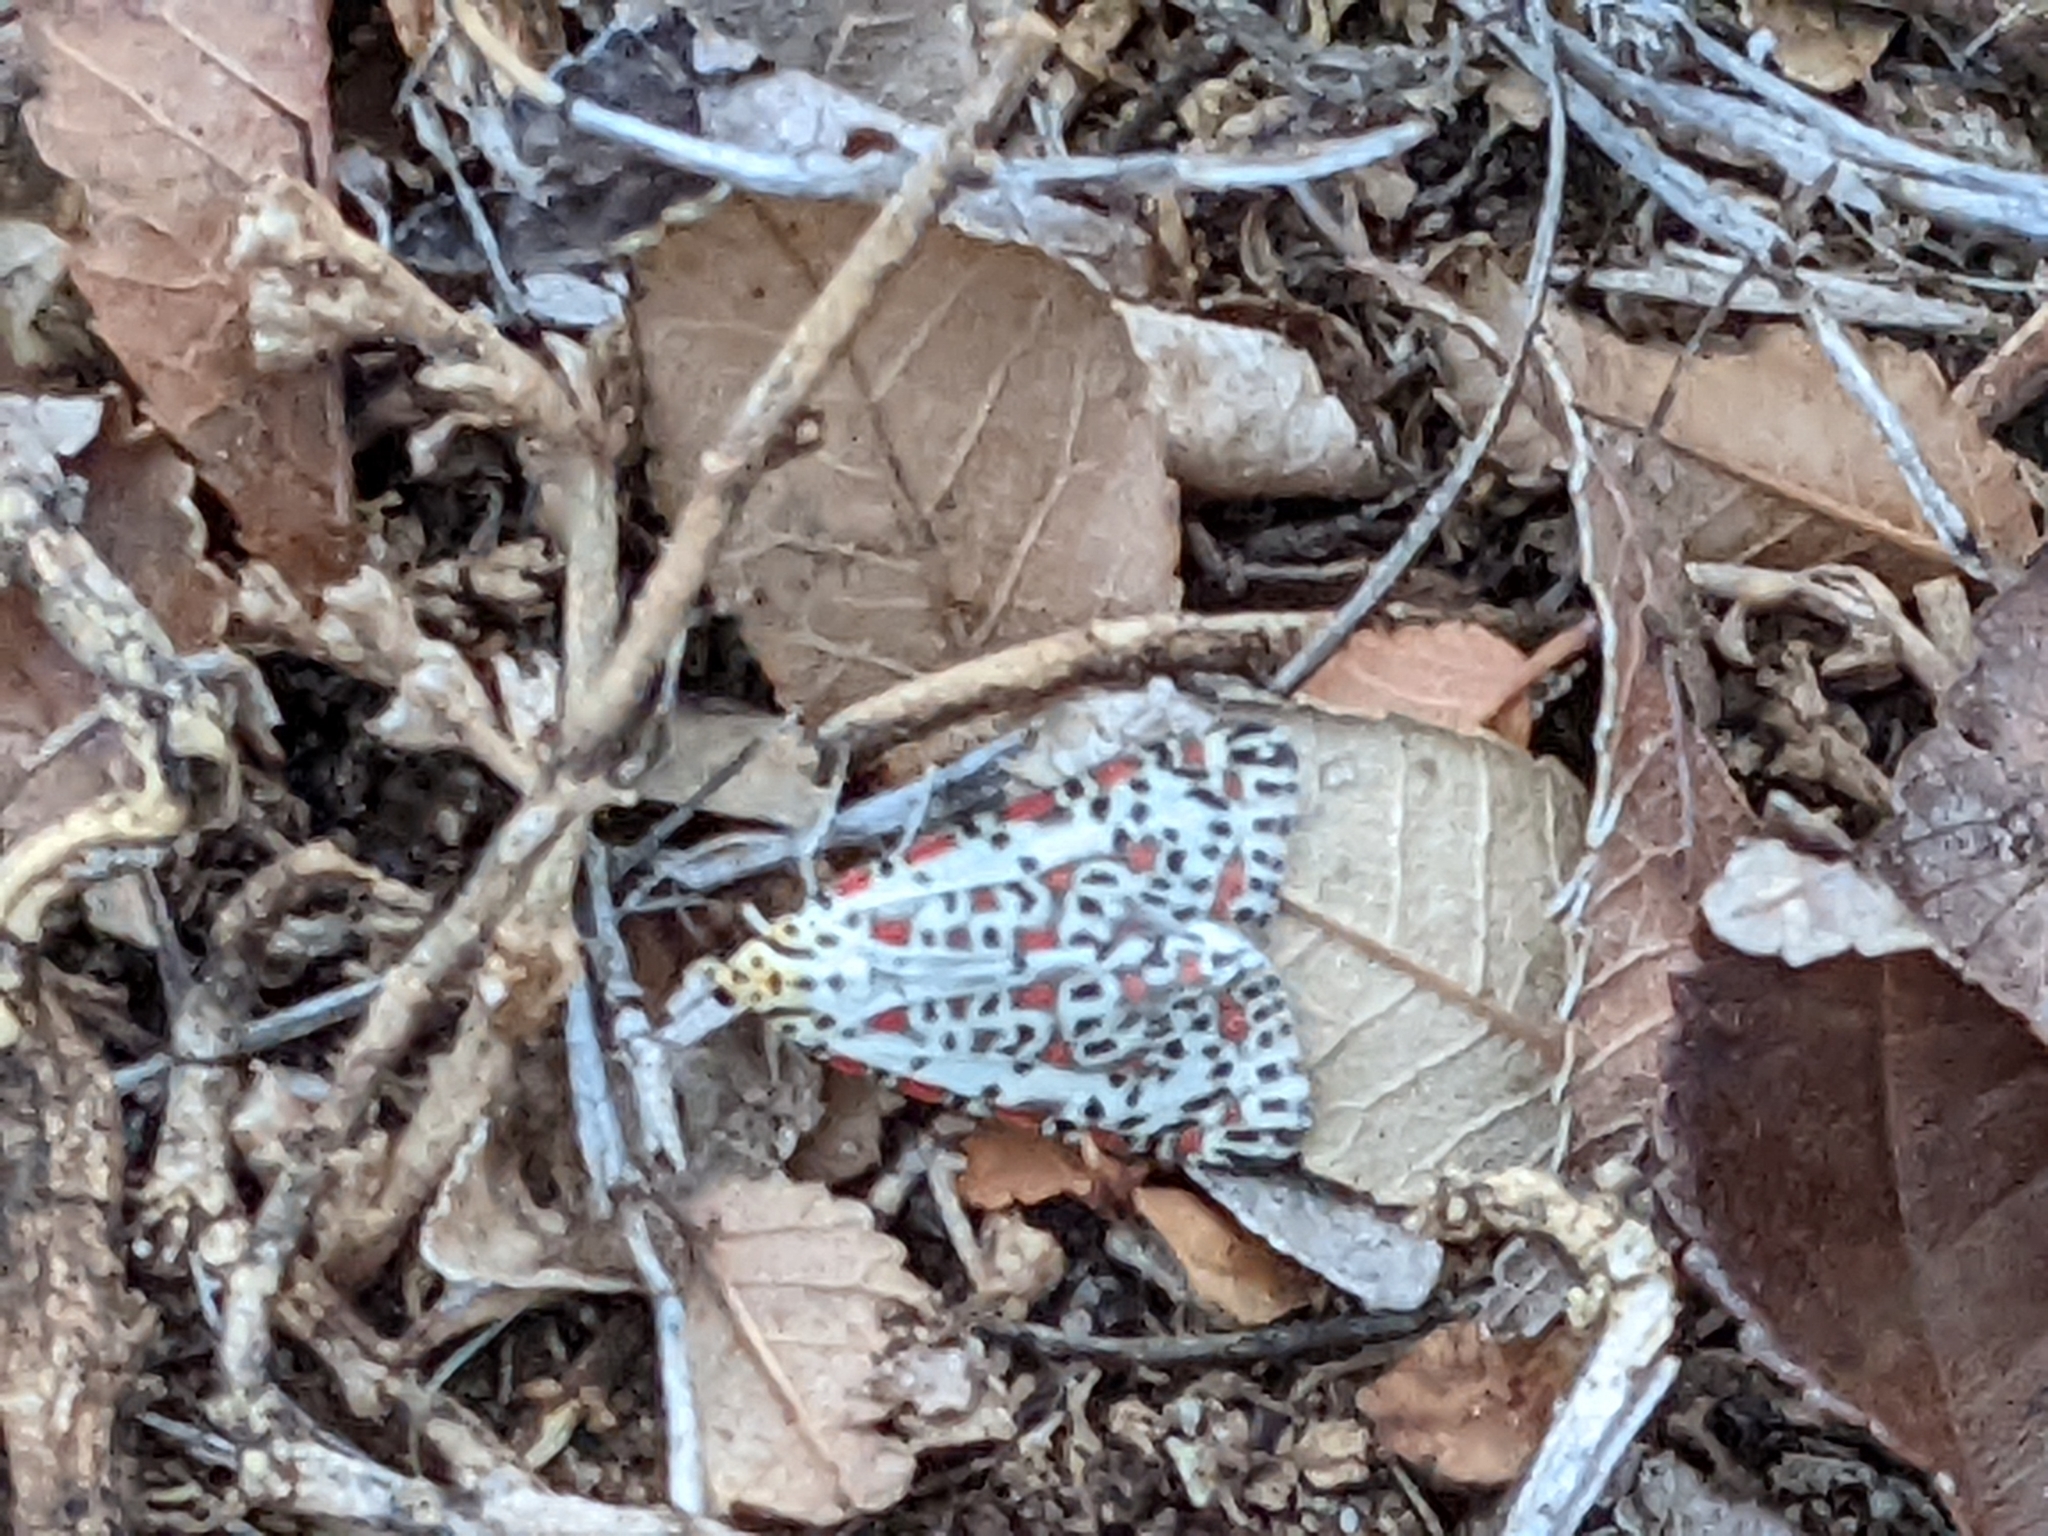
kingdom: Animalia
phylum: Arthropoda
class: Insecta
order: Lepidoptera
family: Erebidae
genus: Utetheisa
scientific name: Utetheisa pulchelloides
